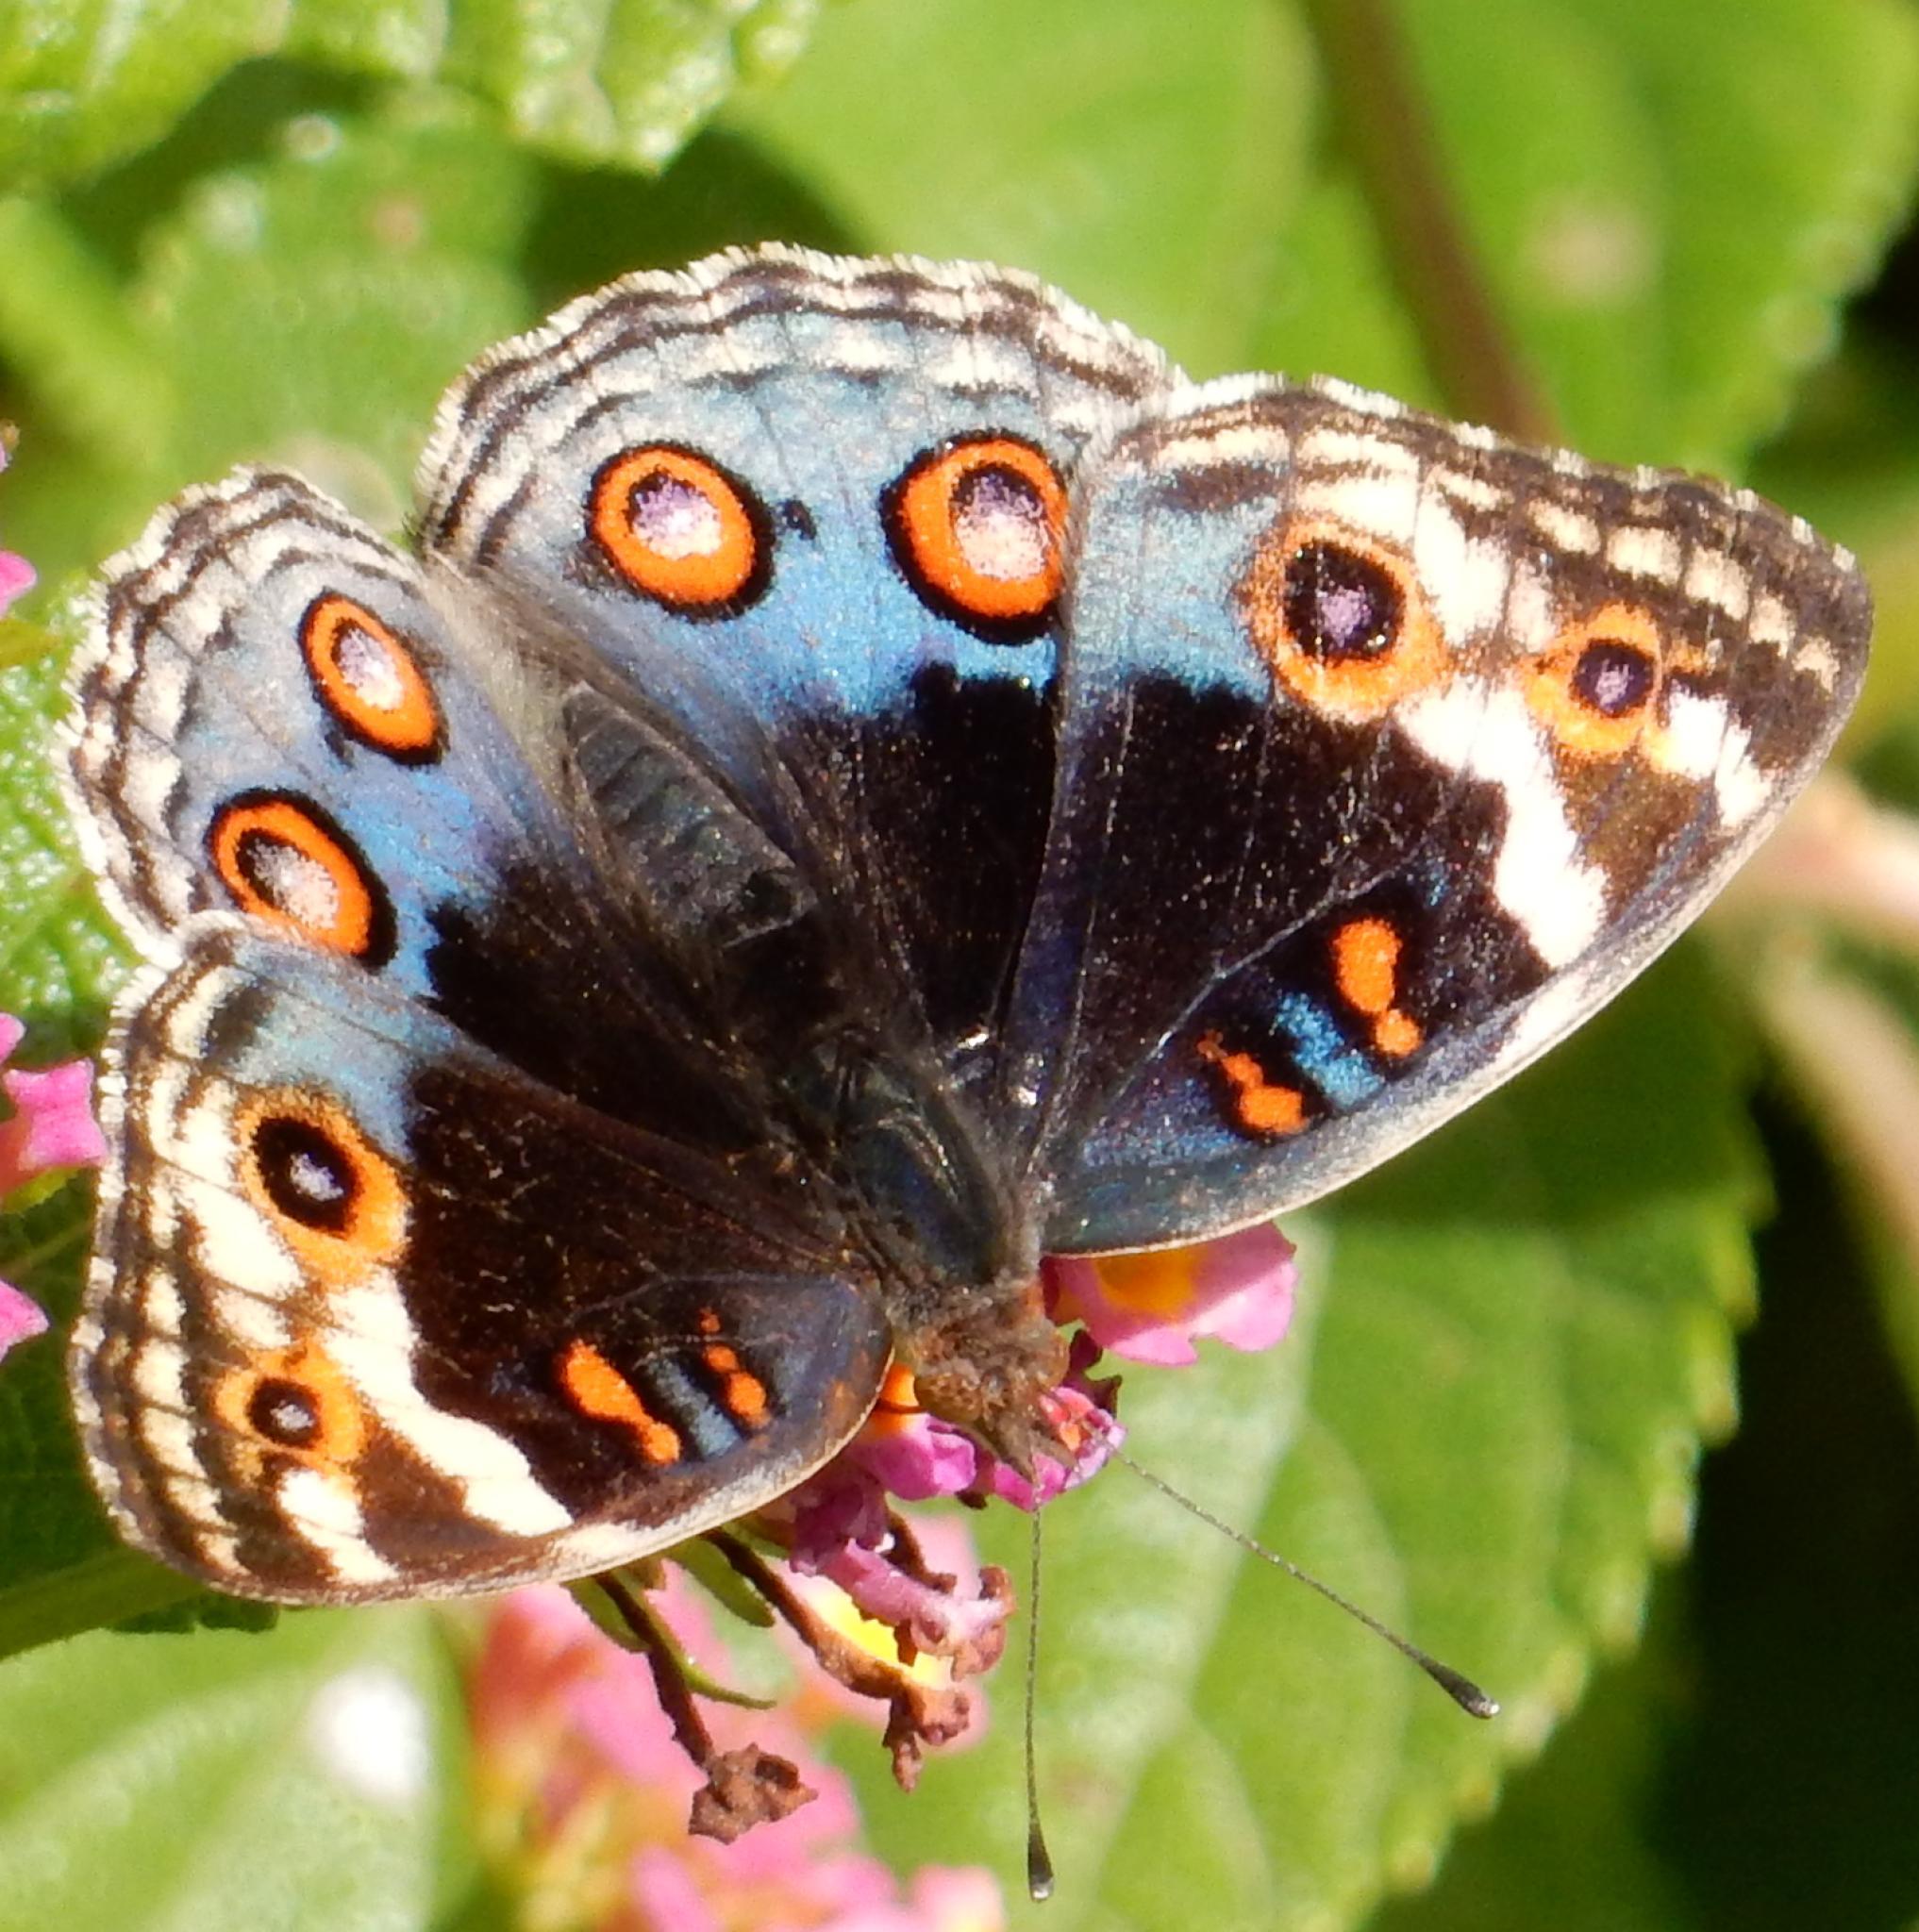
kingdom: Animalia
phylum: Arthropoda
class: Insecta
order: Lepidoptera
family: Nymphalidae
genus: Junonia
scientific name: Junonia orithya
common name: Blue pansy
